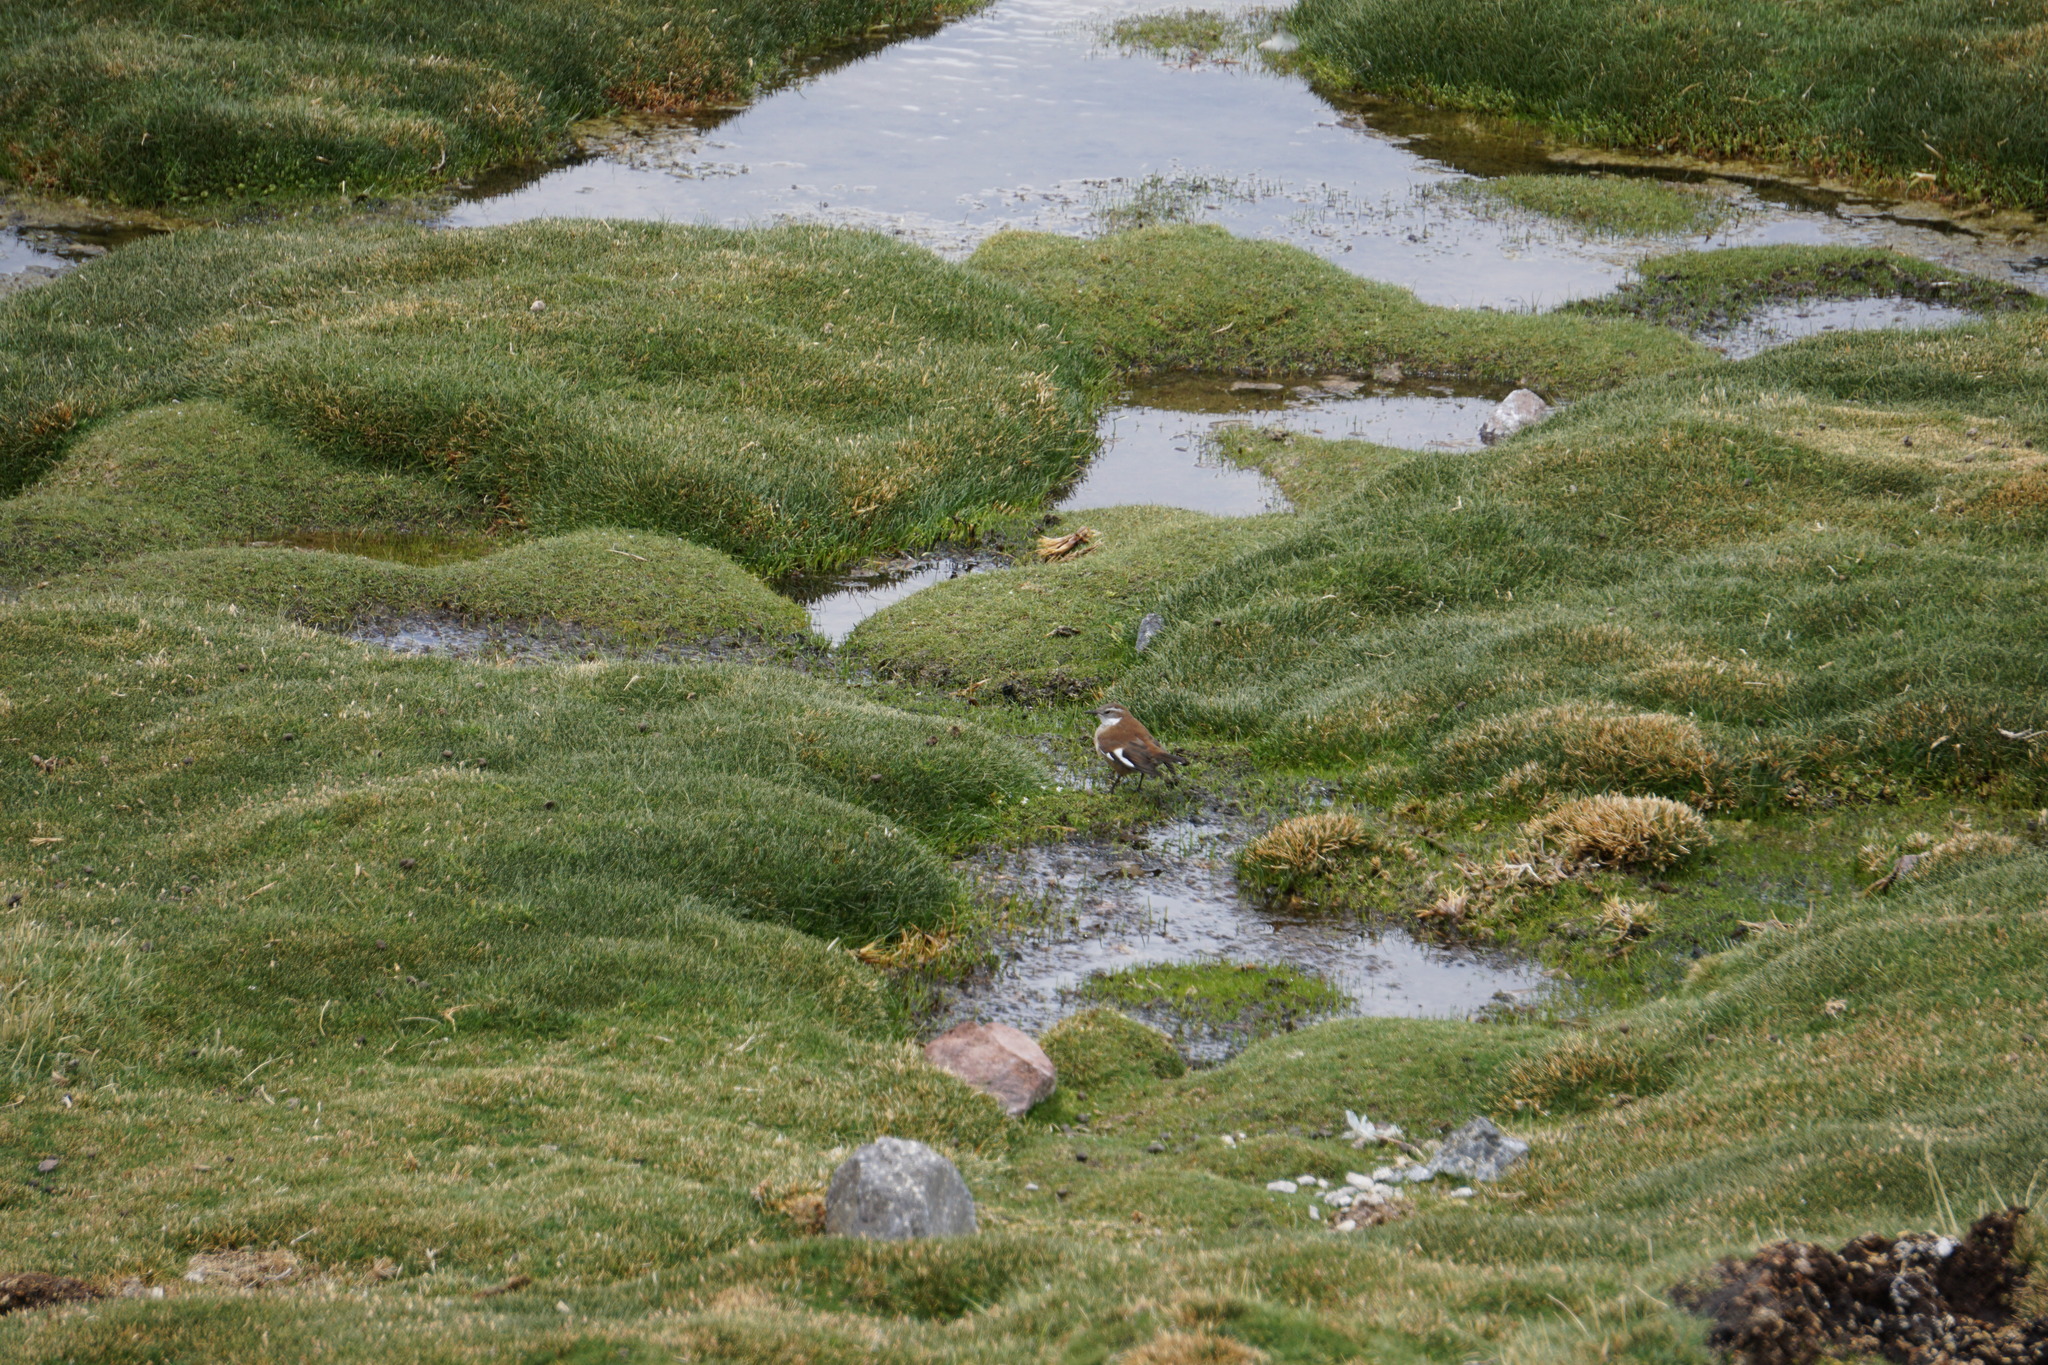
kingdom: Animalia
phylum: Chordata
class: Aves
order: Passeriformes
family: Furnariidae
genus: Cinclodes
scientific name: Cinclodes atacamensis
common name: White-winged cinclodes
